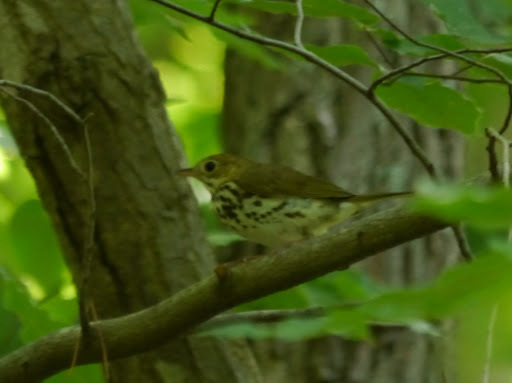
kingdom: Animalia
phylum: Chordata
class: Aves
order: Passeriformes
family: Parulidae
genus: Seiurus
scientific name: Seiurus aurocapilla
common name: Ovenbird
